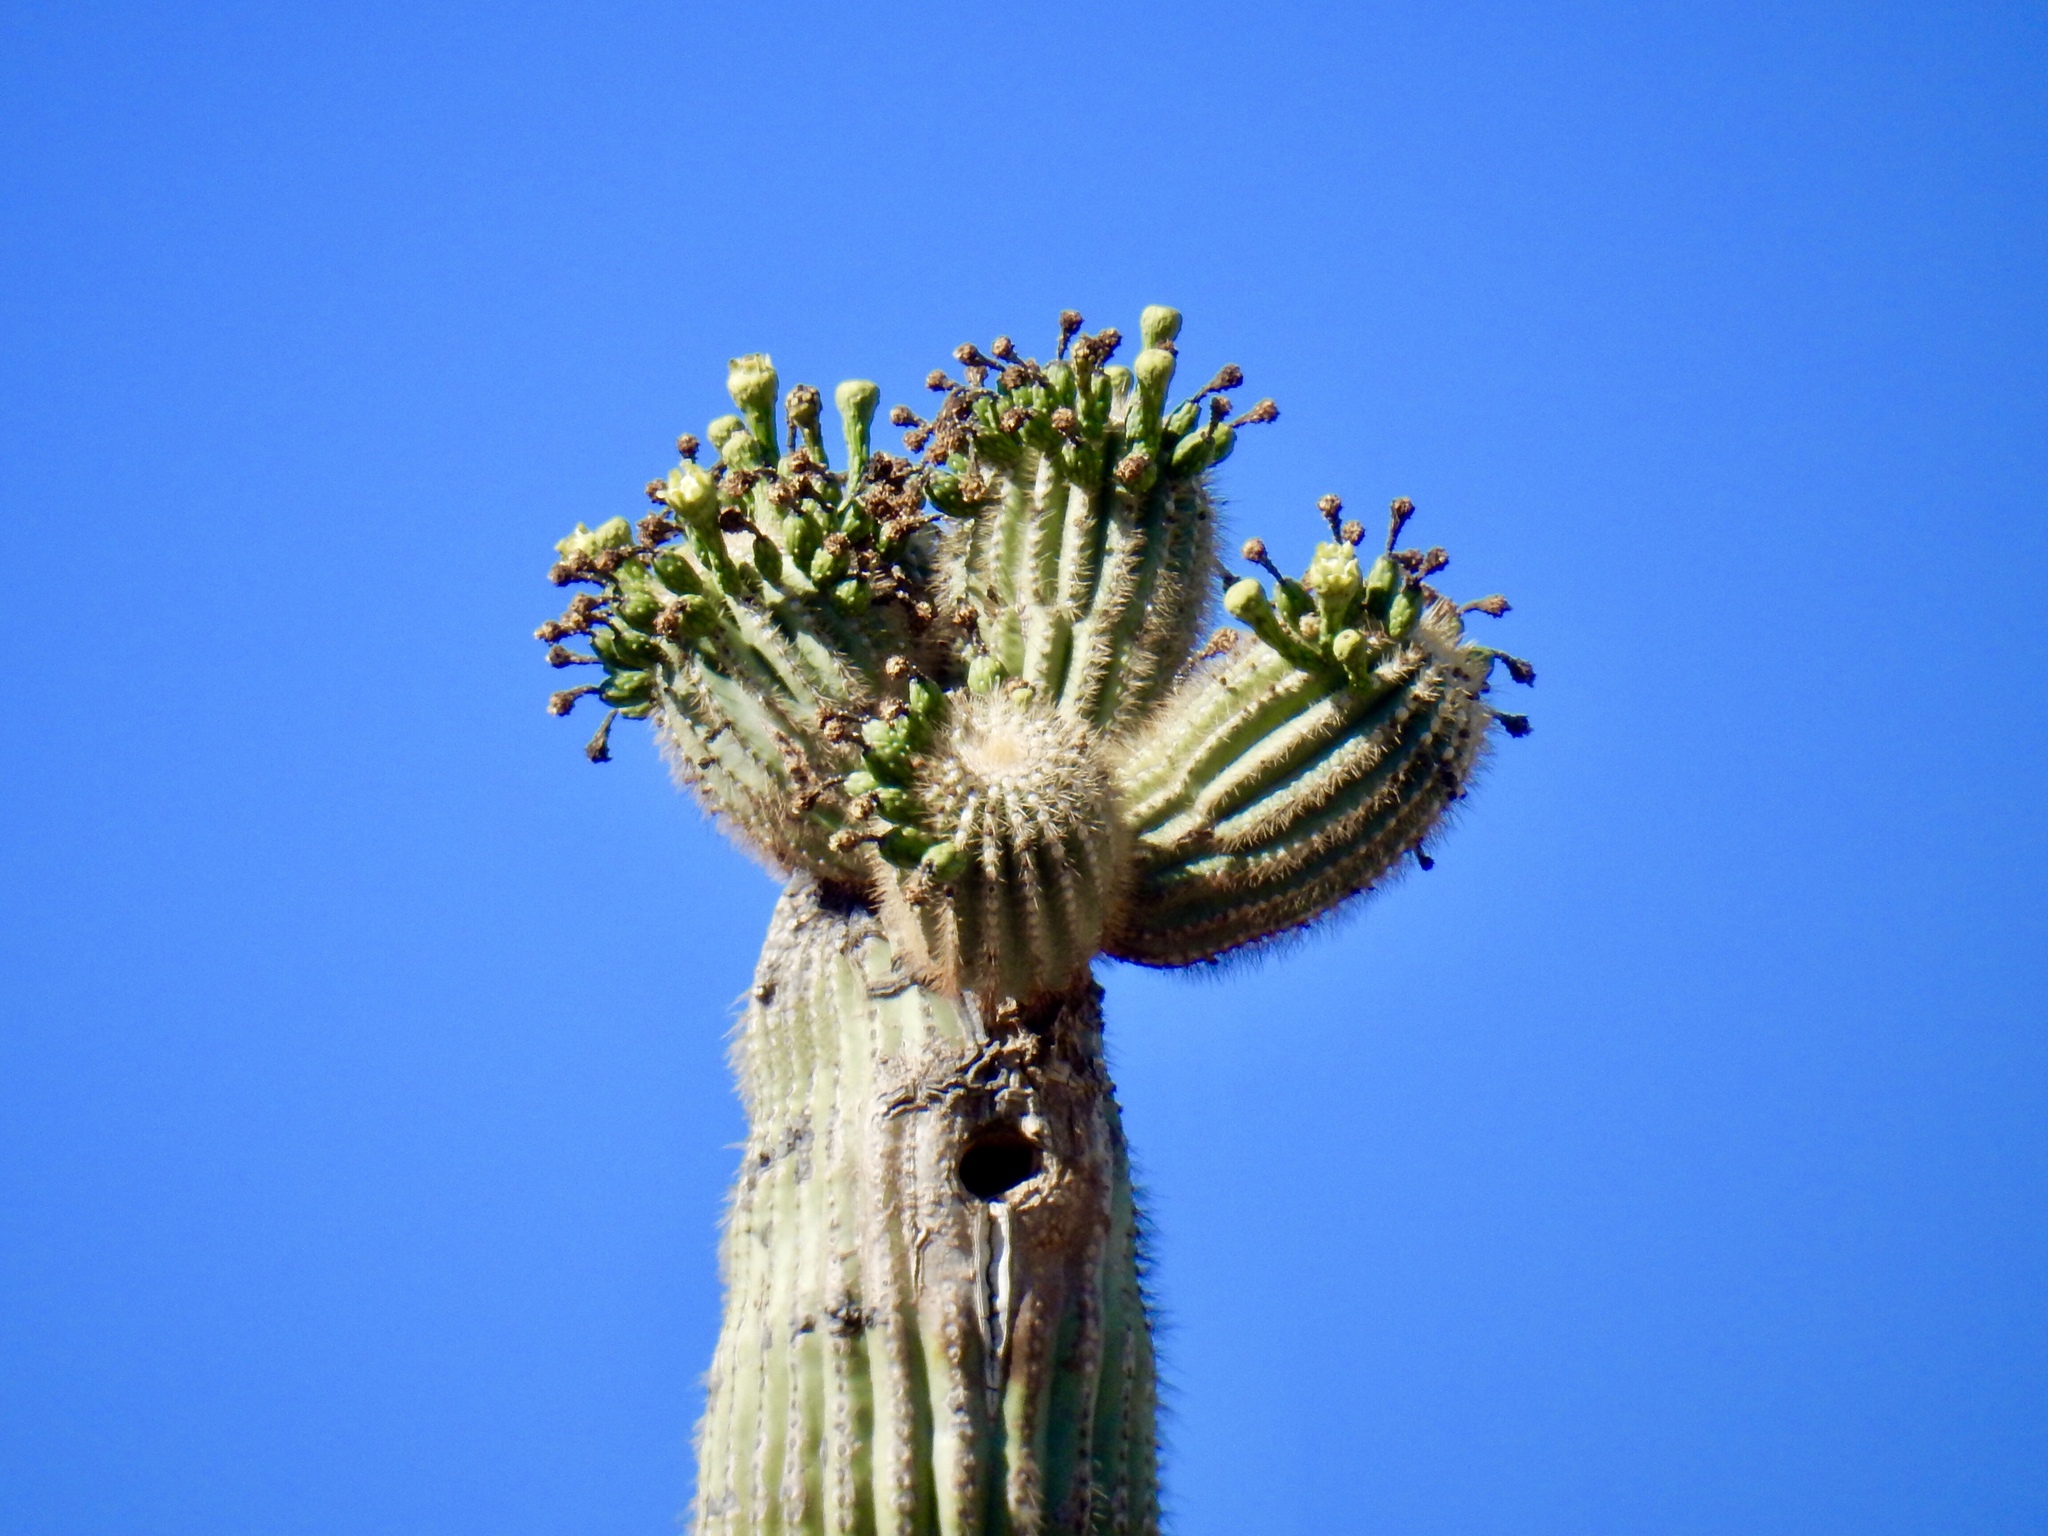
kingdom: Plantae
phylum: Tracheophyta
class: Magnoliopsida
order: Caryophyllales
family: Cactaceae
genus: Carnegiea
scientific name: Carnegiea gigantea
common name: Saguaro
